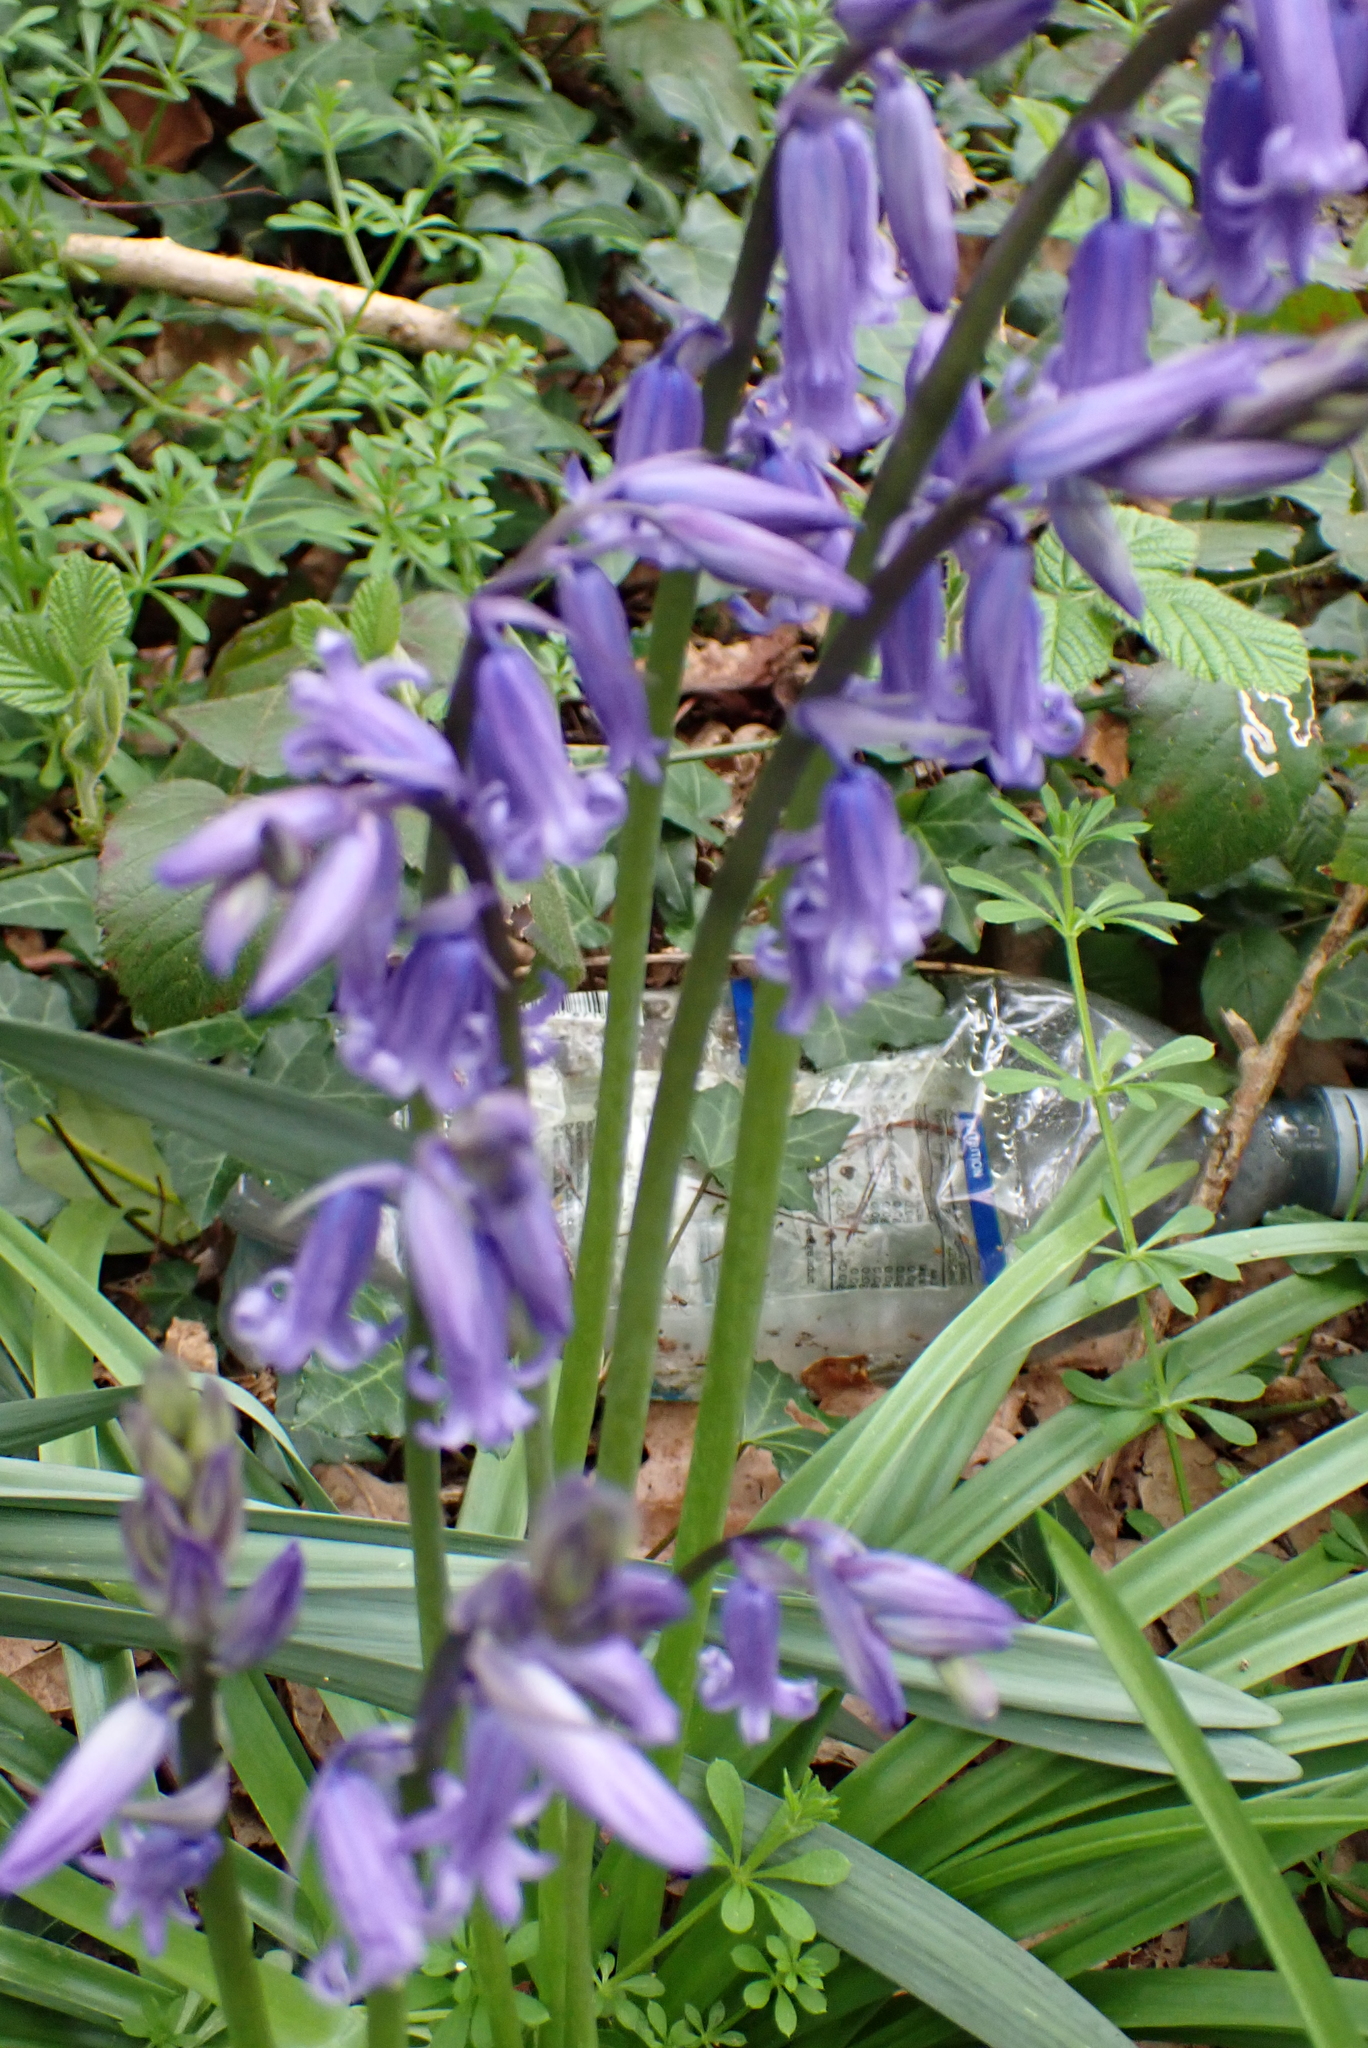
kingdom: Plantae
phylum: Tracheophyta
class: Liliopsida
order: Asparagales
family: Asparagaceae
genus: Hyacinthoides
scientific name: Hyacinthoides non-scripta
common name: Bluebell
